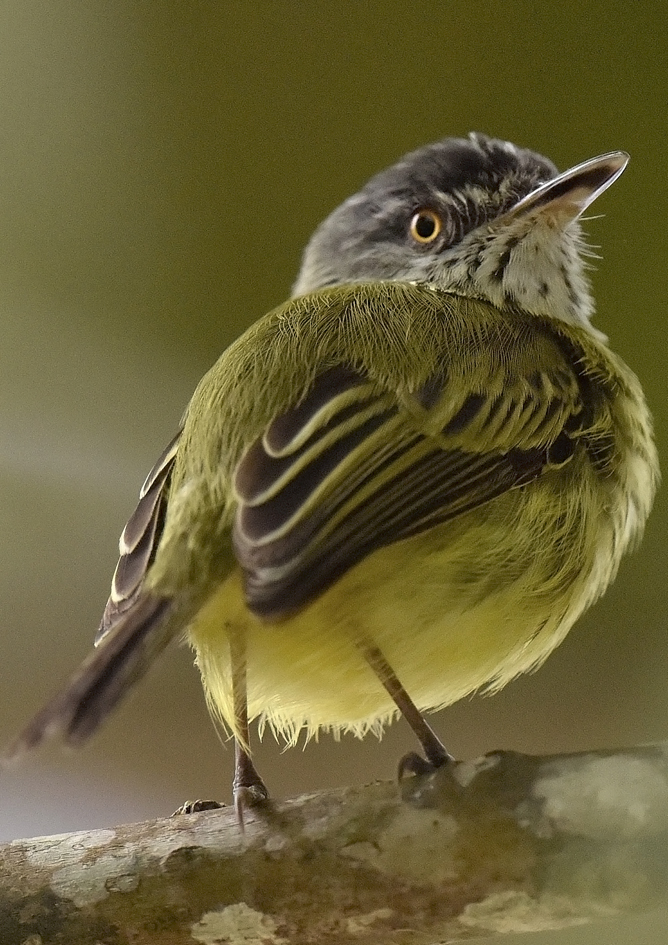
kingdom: Animalia
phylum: Chordata
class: Aves
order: Passeriformes
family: Tyrannidae
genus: Todirostrum
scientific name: Todirostrum maculatum
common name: Spotted tody-flycatcher
